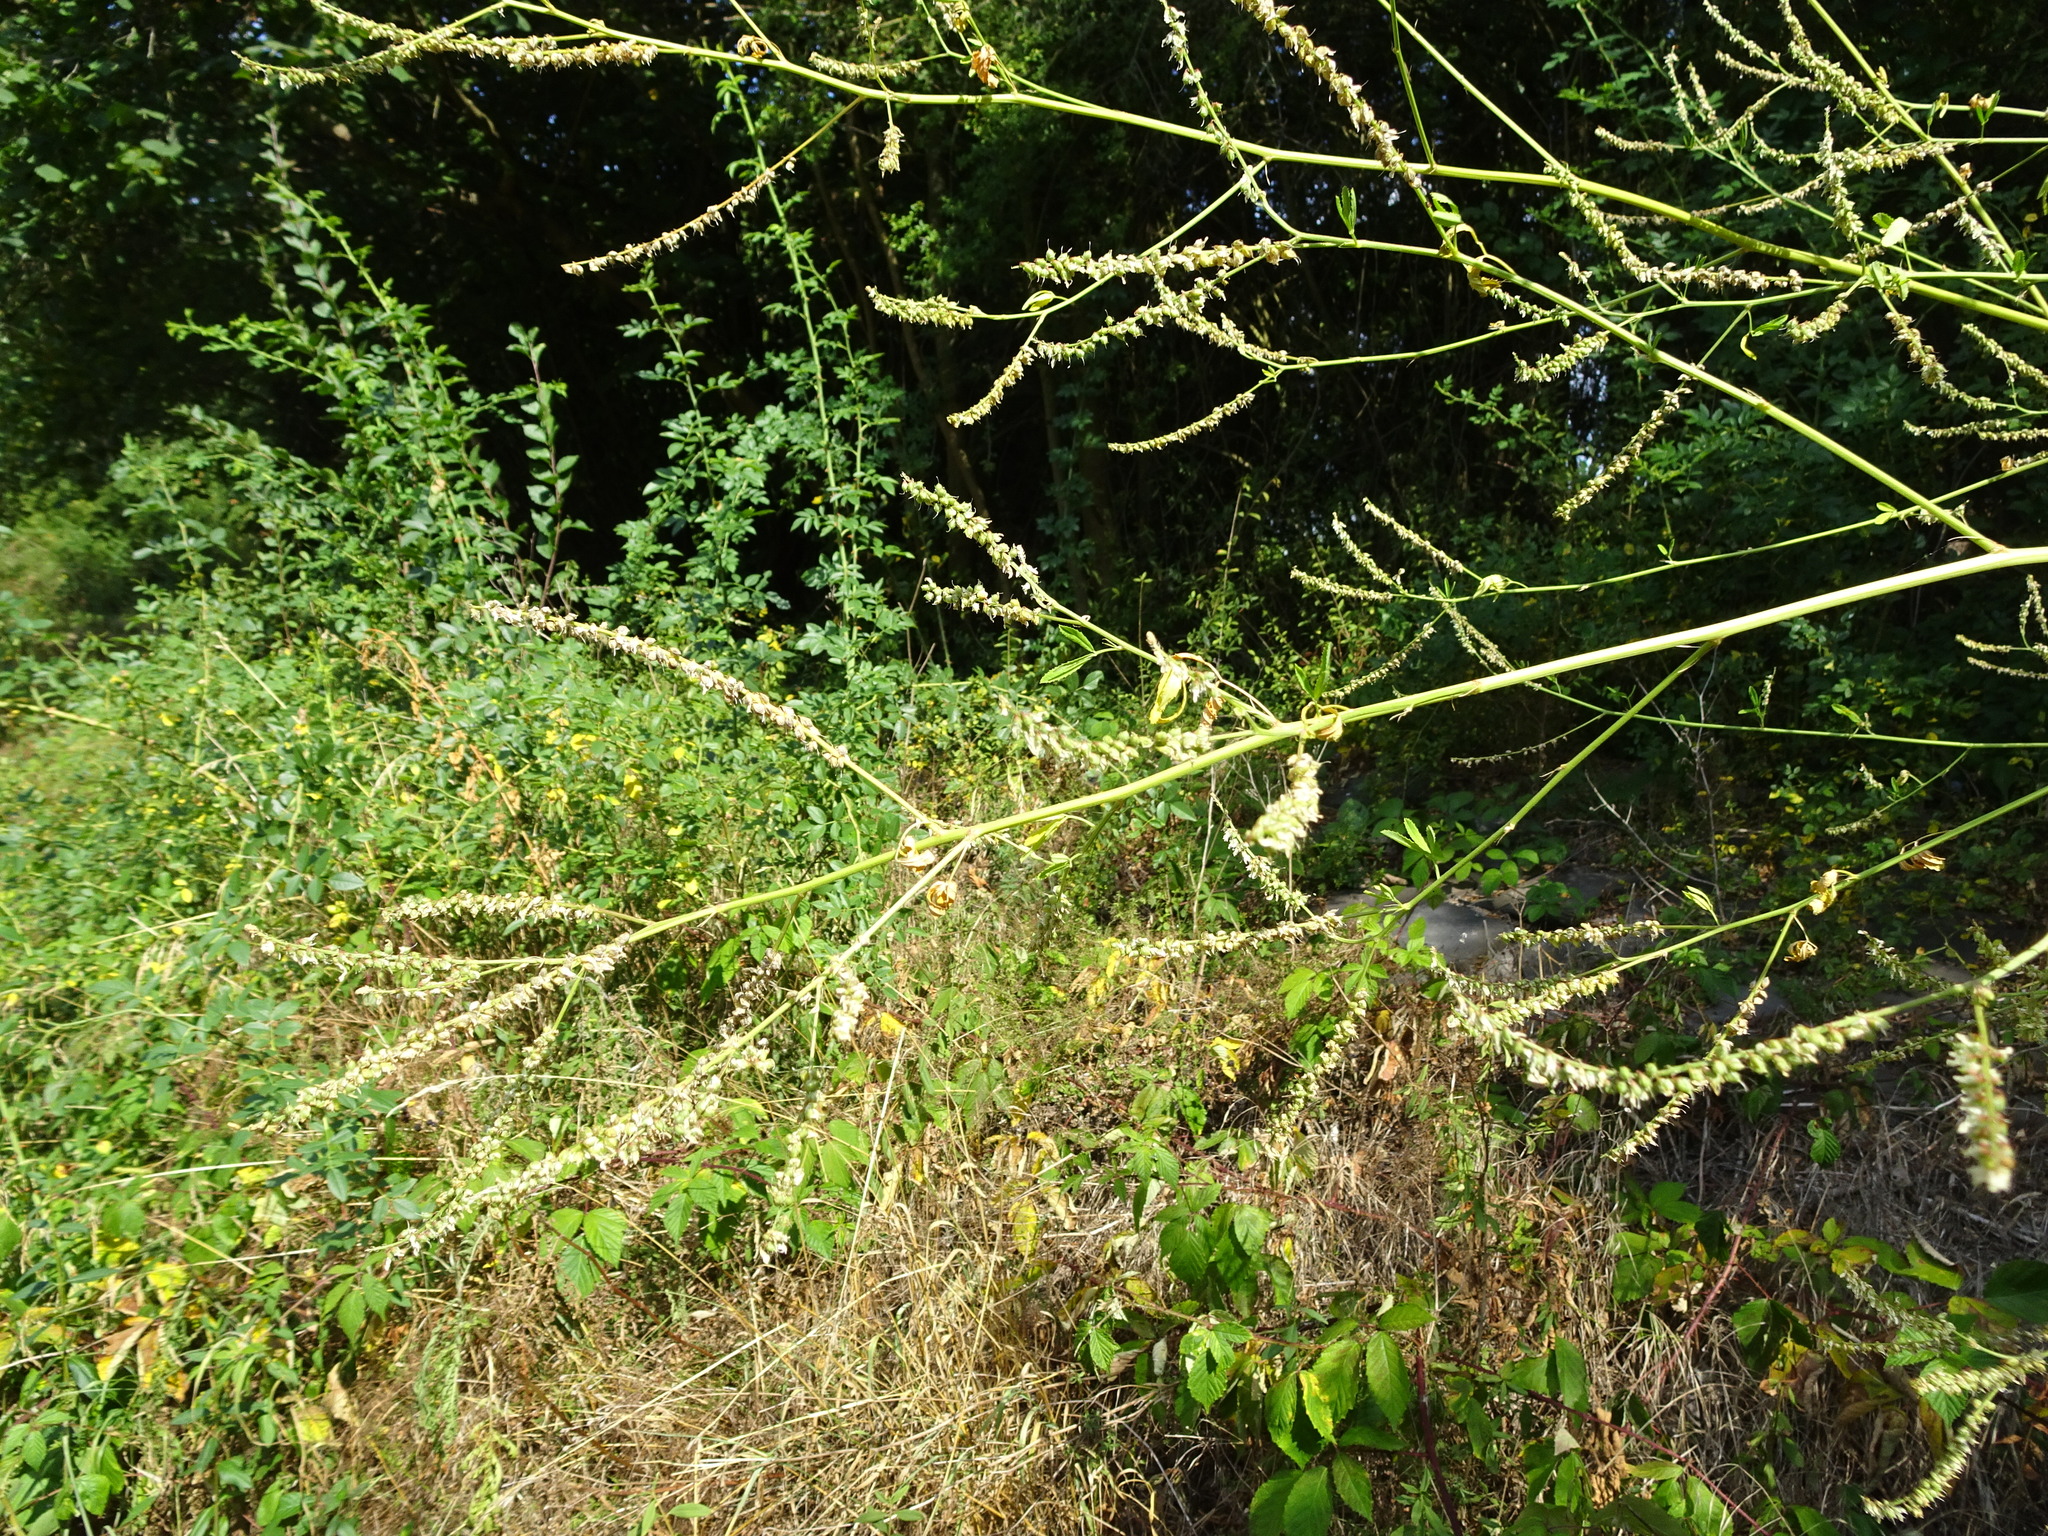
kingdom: Plantae
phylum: Tracheophyta
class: Magnoliopsida
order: Fabales
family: Fabaceae
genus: Melilotus
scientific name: Melilotus albus
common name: White melilot
